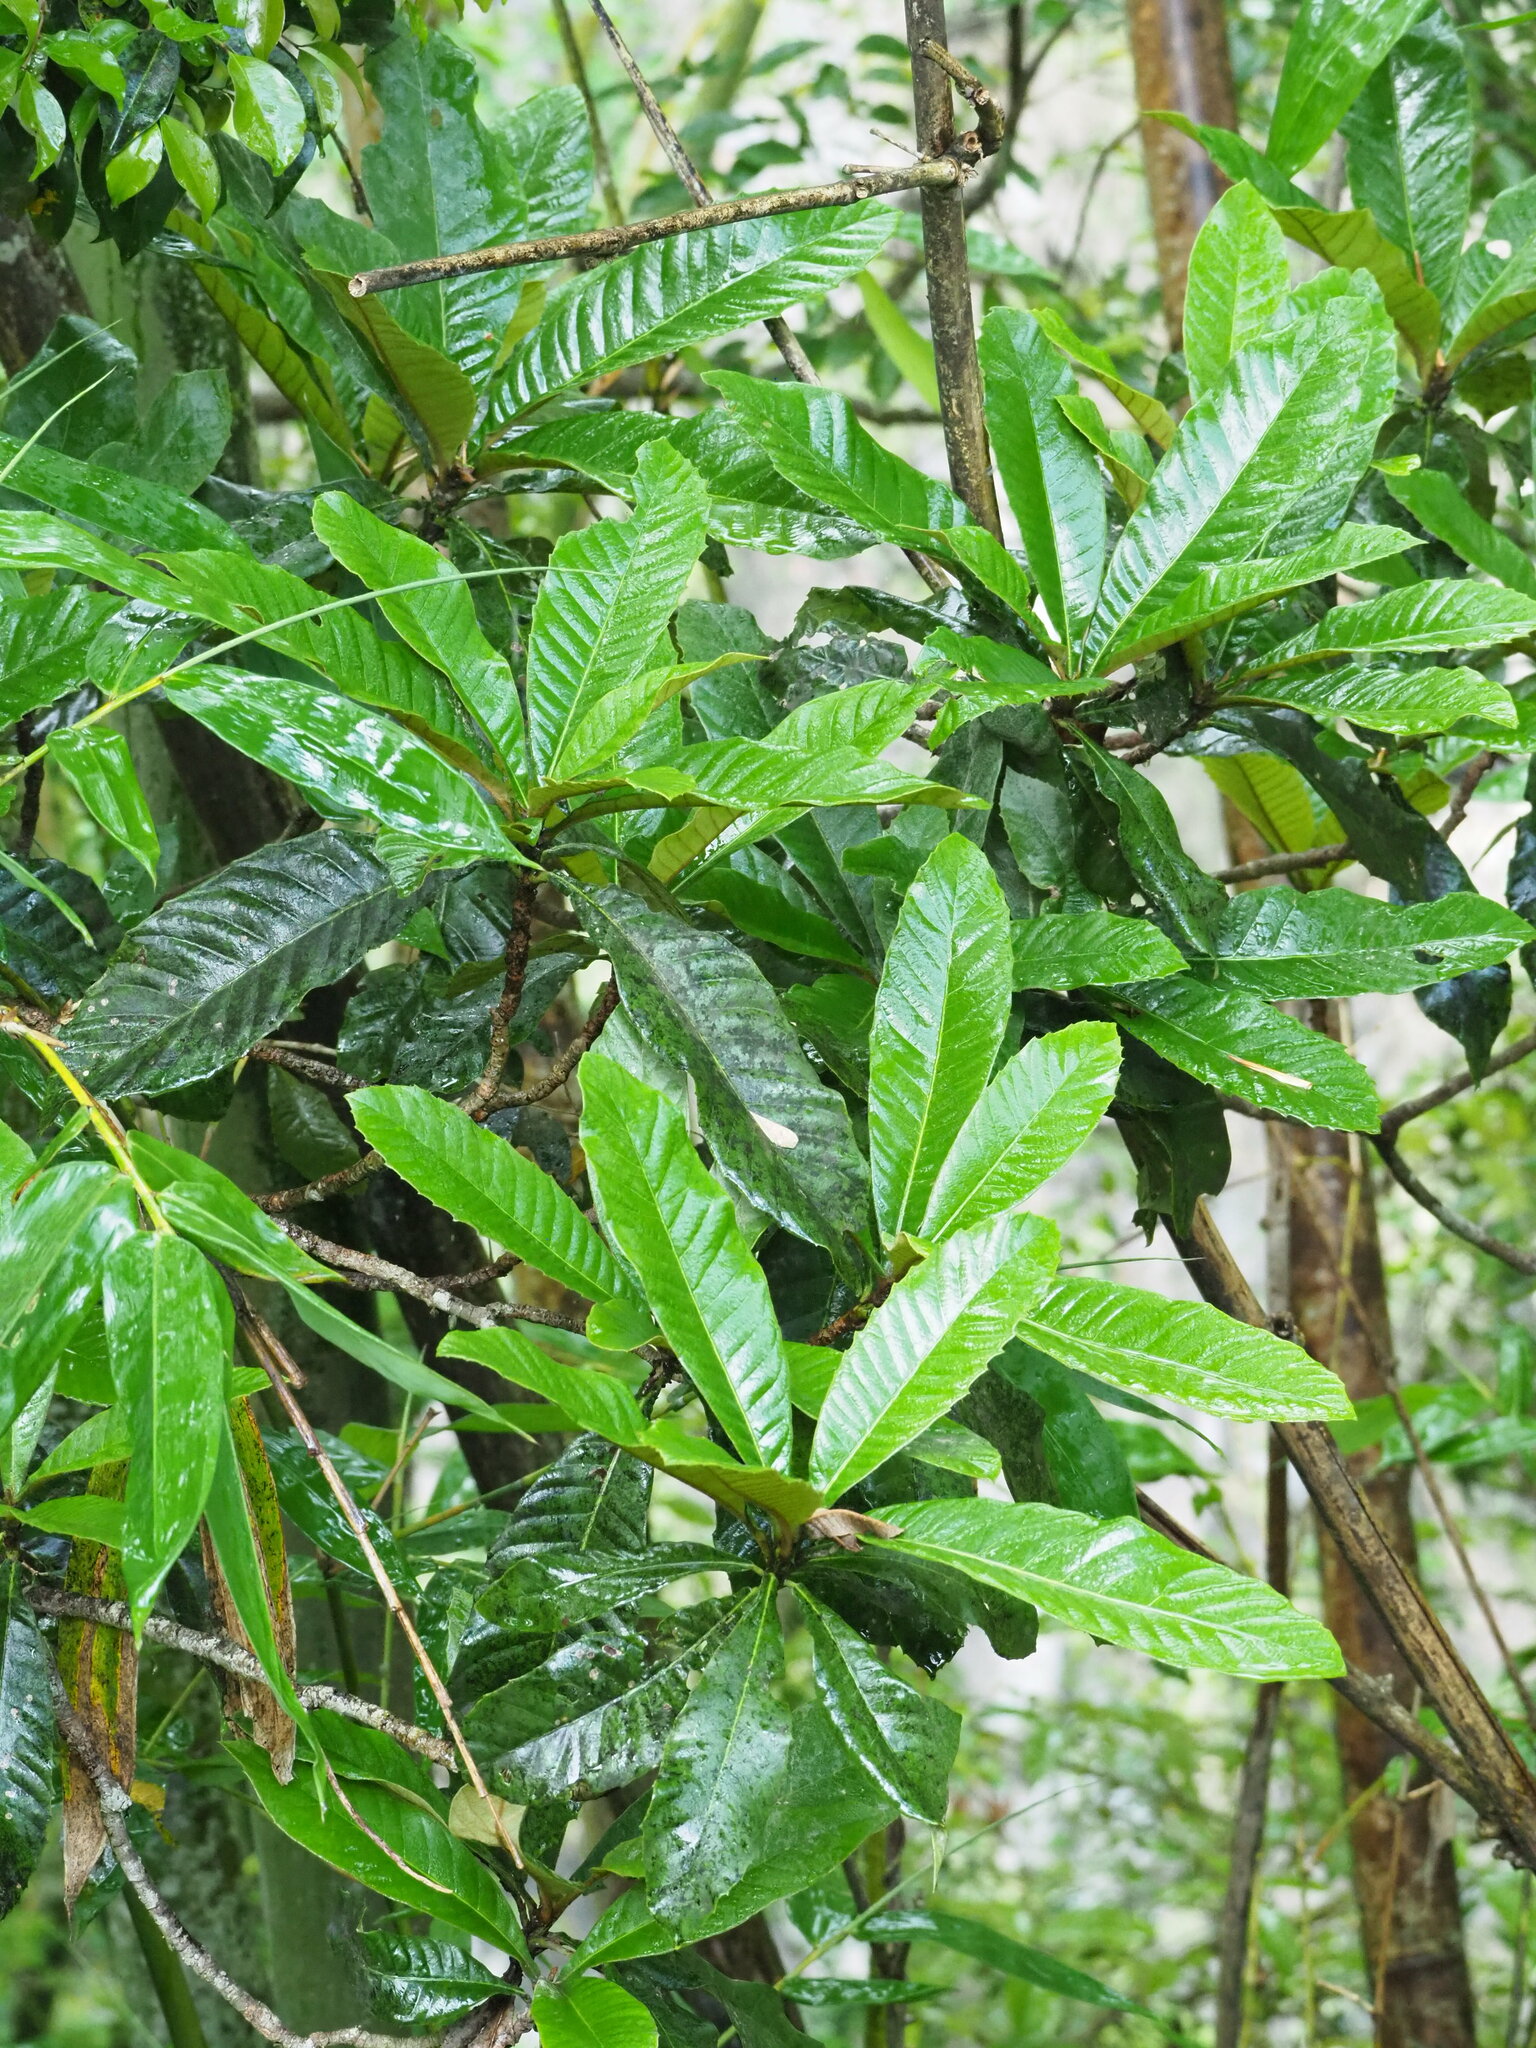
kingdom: Plantae
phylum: Tracheophyta
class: Magnoliopsida
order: Rosales
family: Rosaceae
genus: Rhaphiolepis
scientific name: Rhaphiolepis bibas
